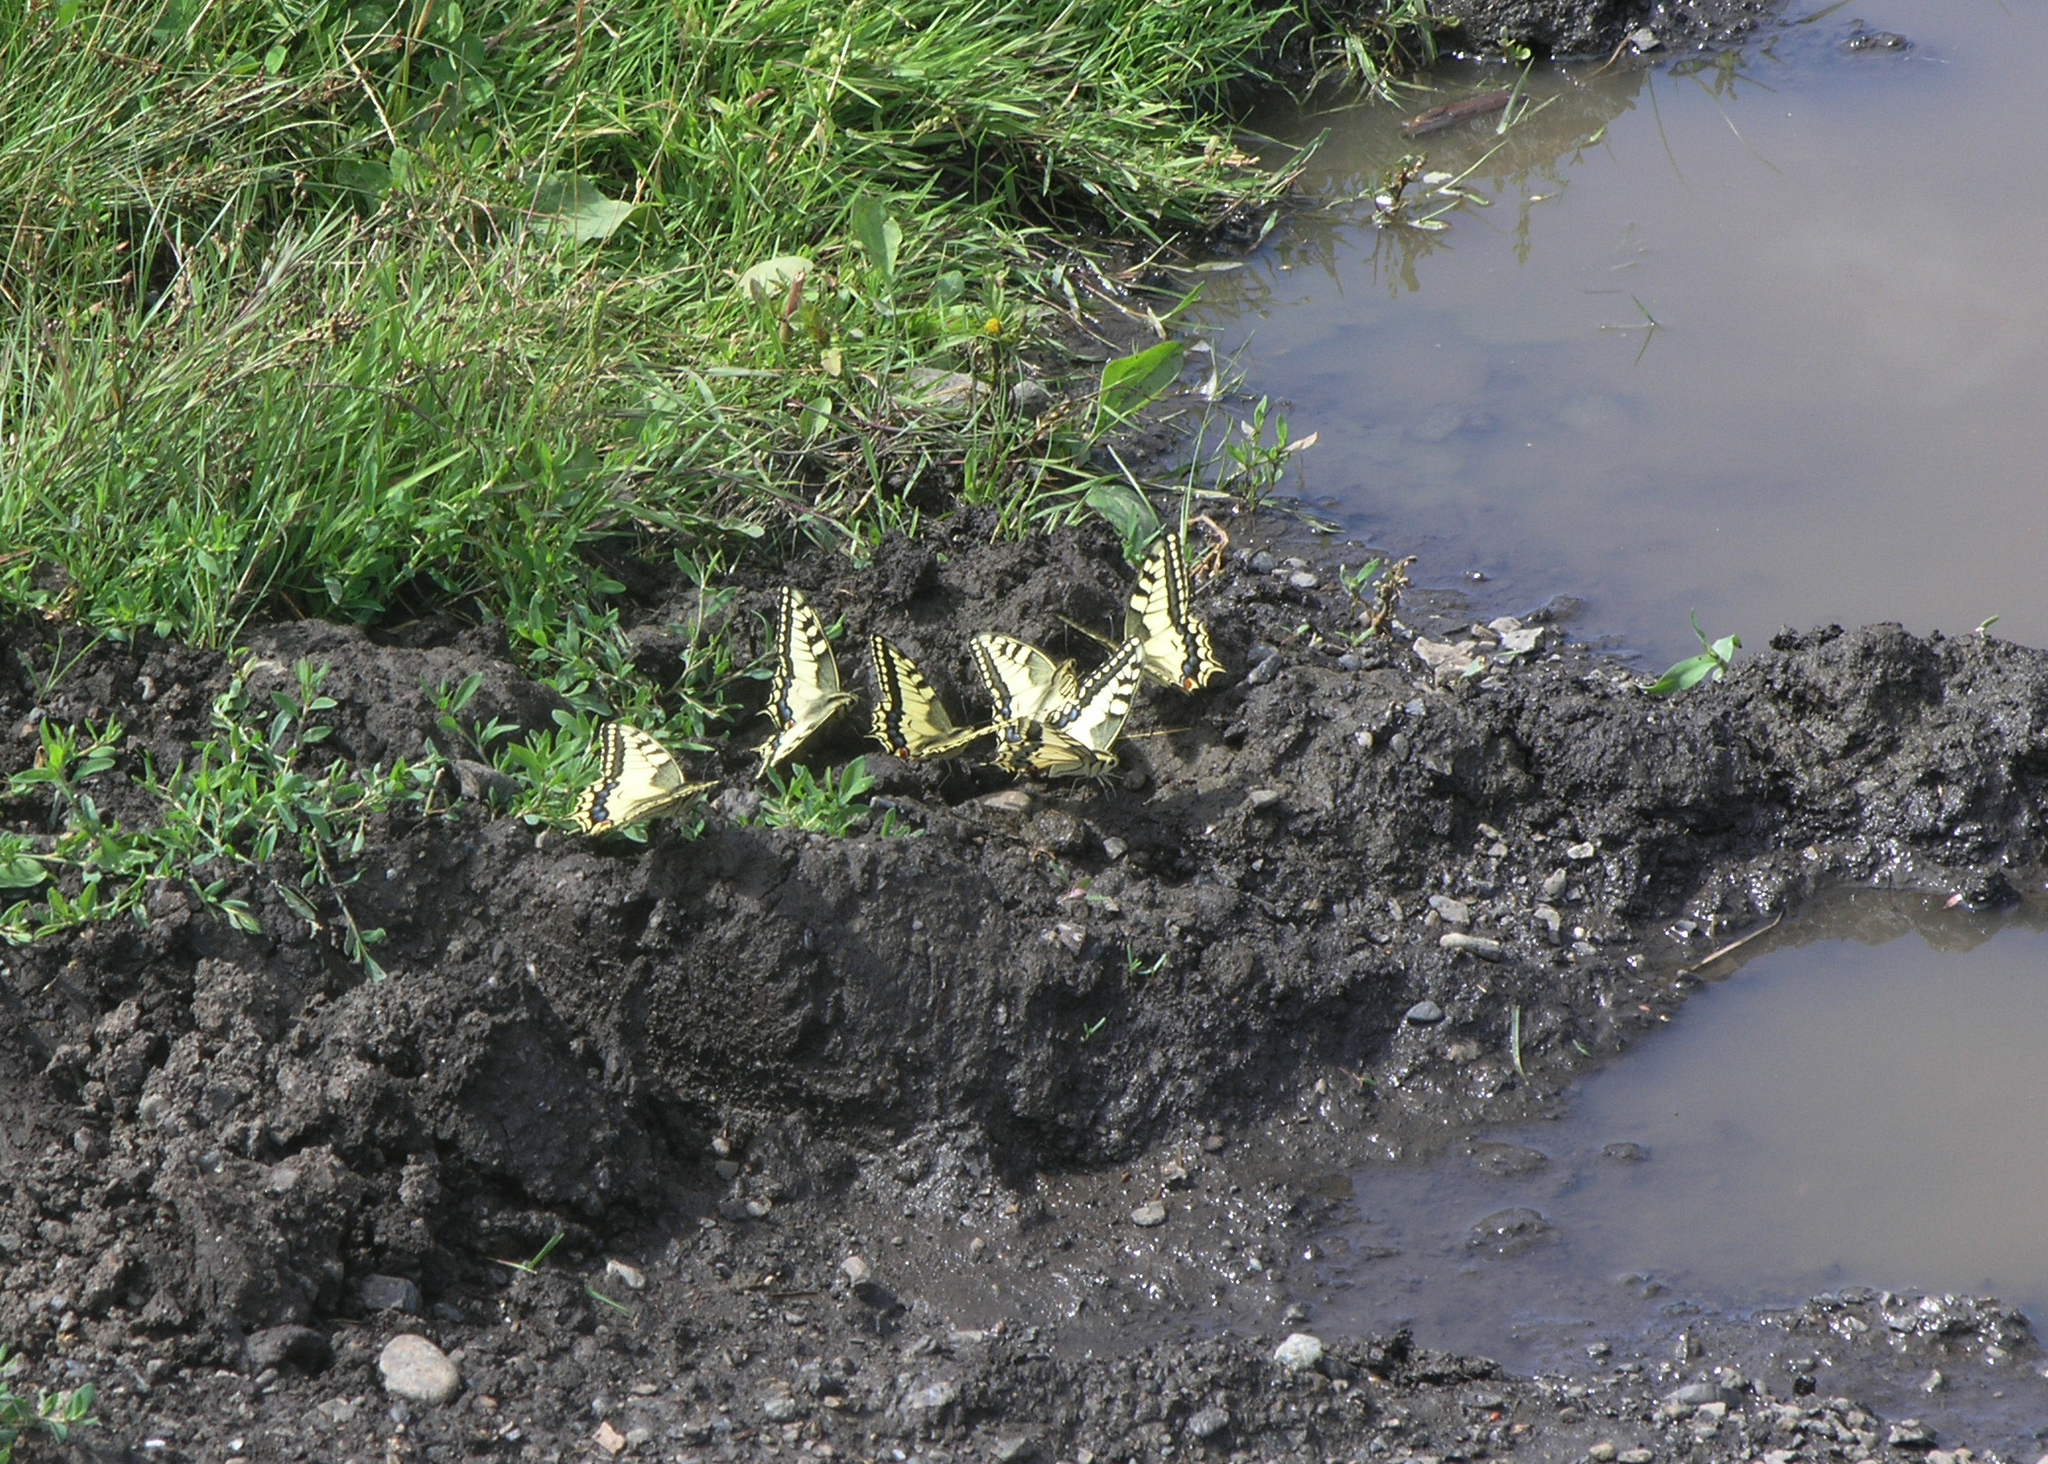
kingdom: Animalia
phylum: Arthropoda
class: Insecta
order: Lepidoptera
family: Papilionidae
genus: Papilio
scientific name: Papilio machaon
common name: Swallowtail
